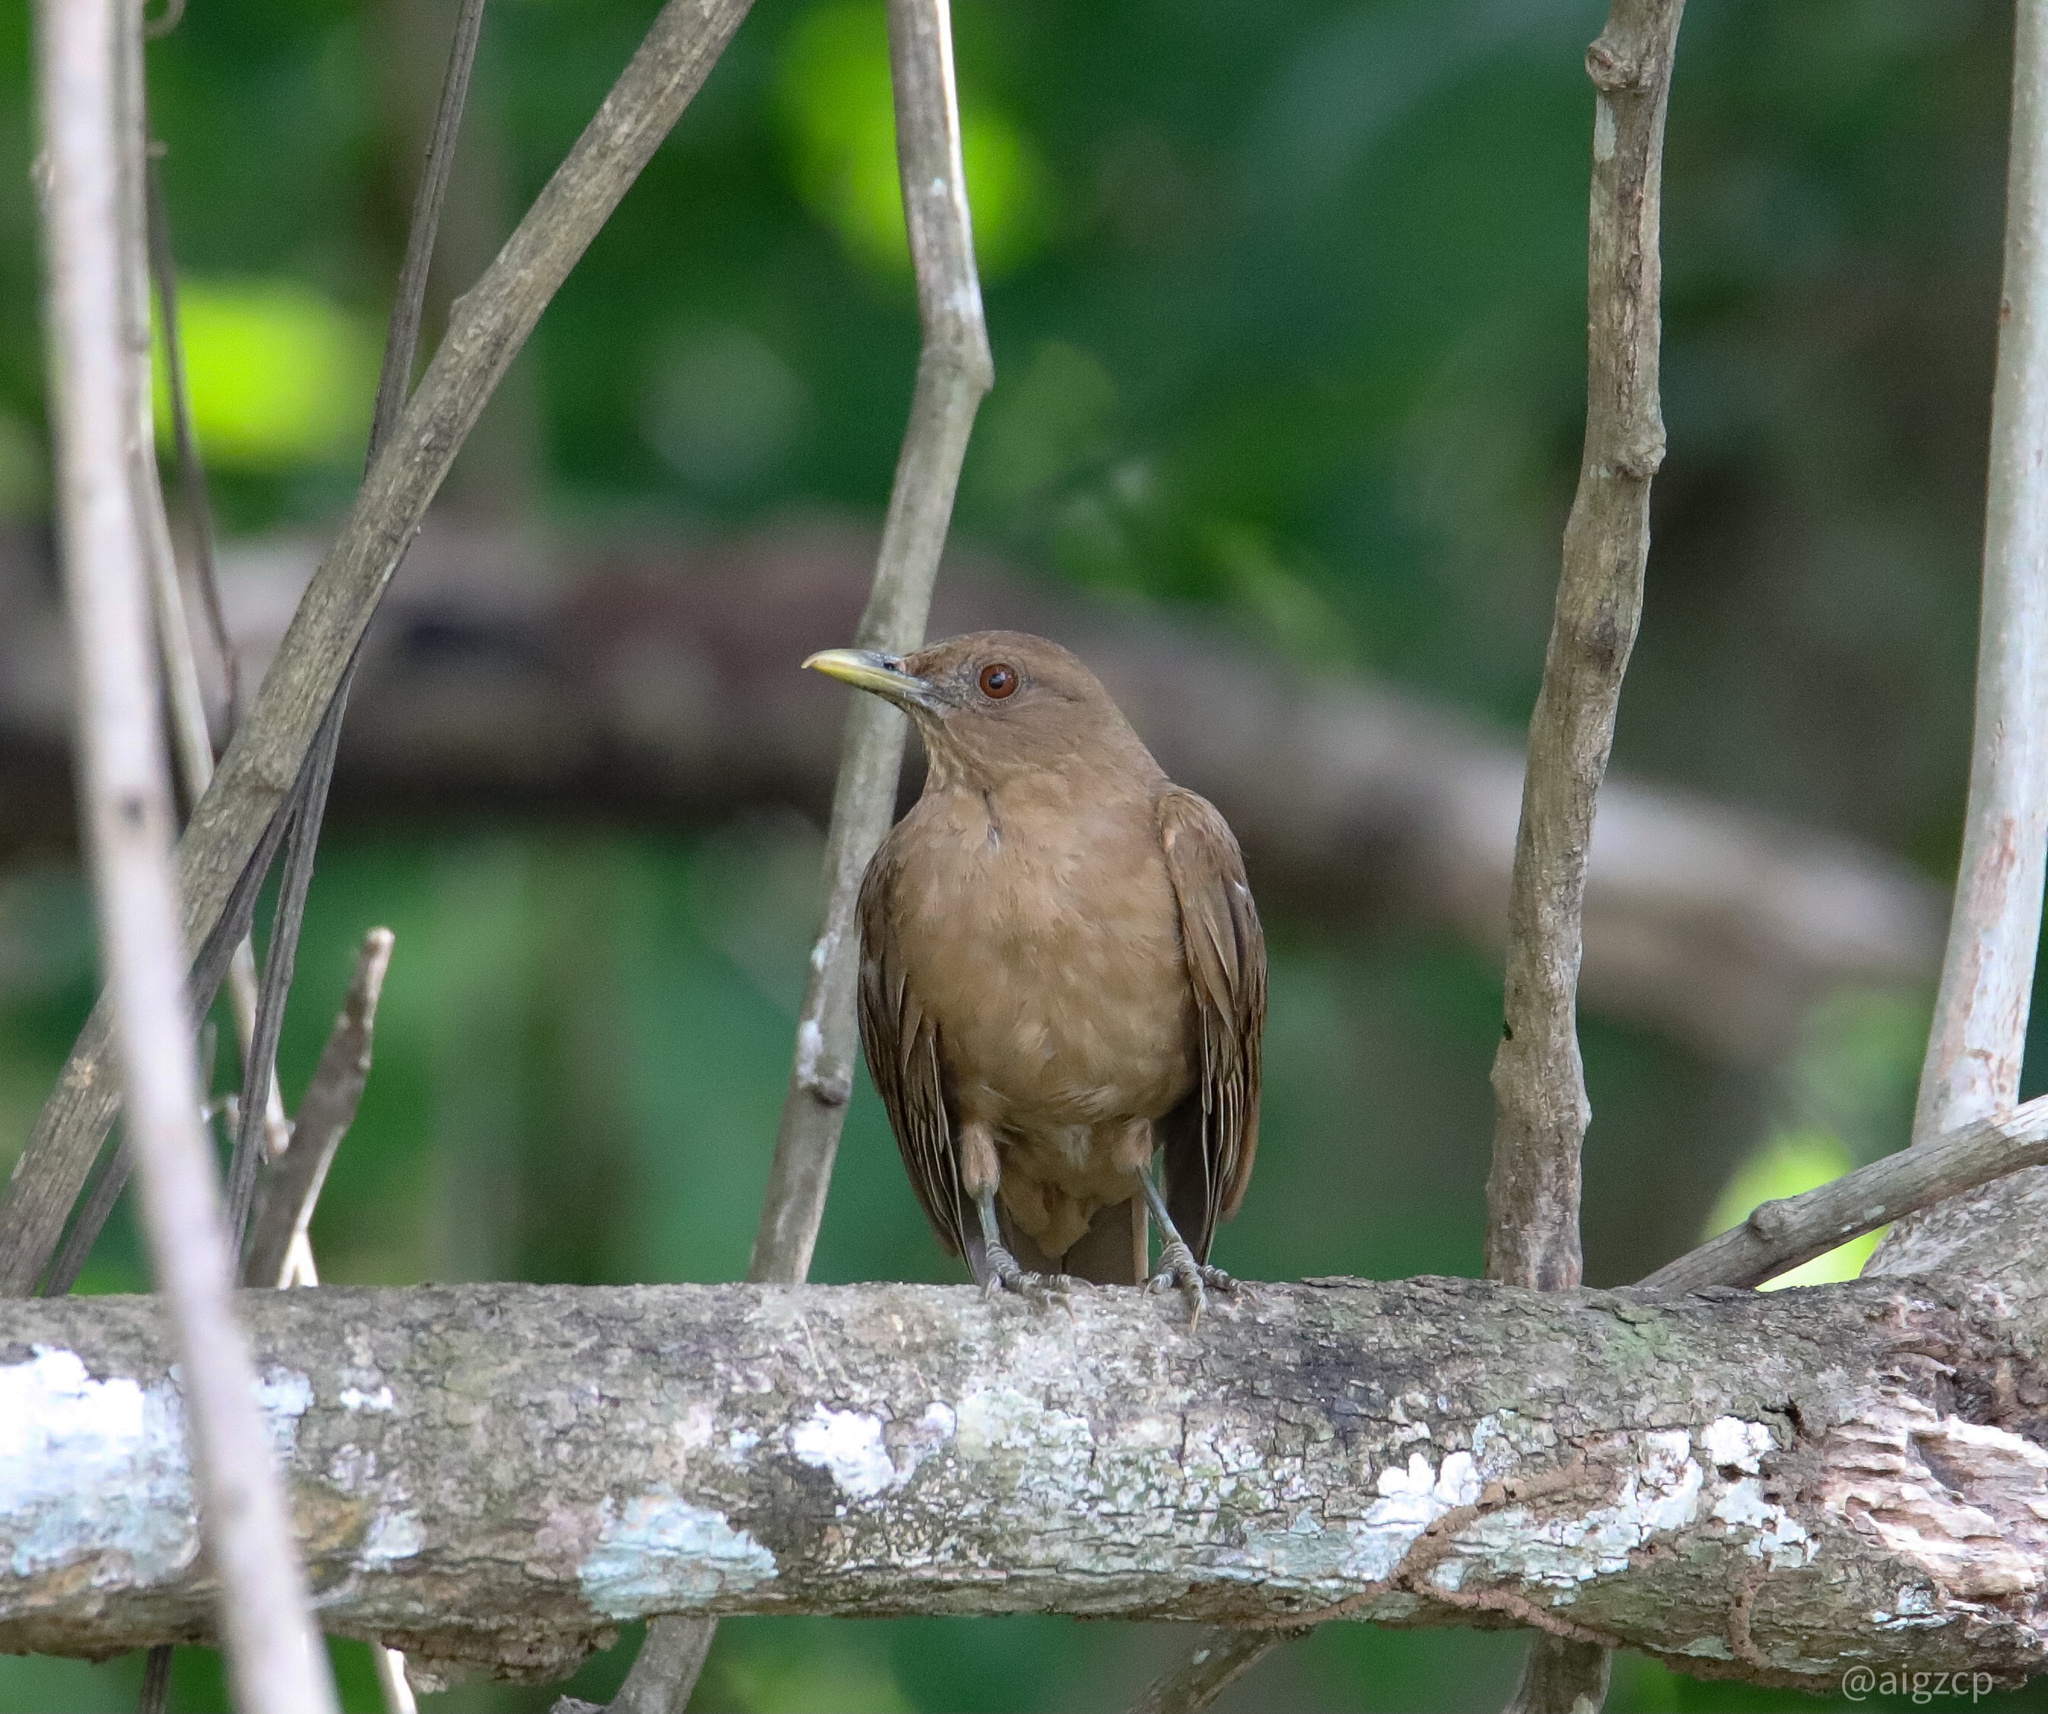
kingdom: Animalia
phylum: Chordata
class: Aves
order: Passeriformes
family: Turdidae
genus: Turdus
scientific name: Turdus grayi
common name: Clay-colored thrush
